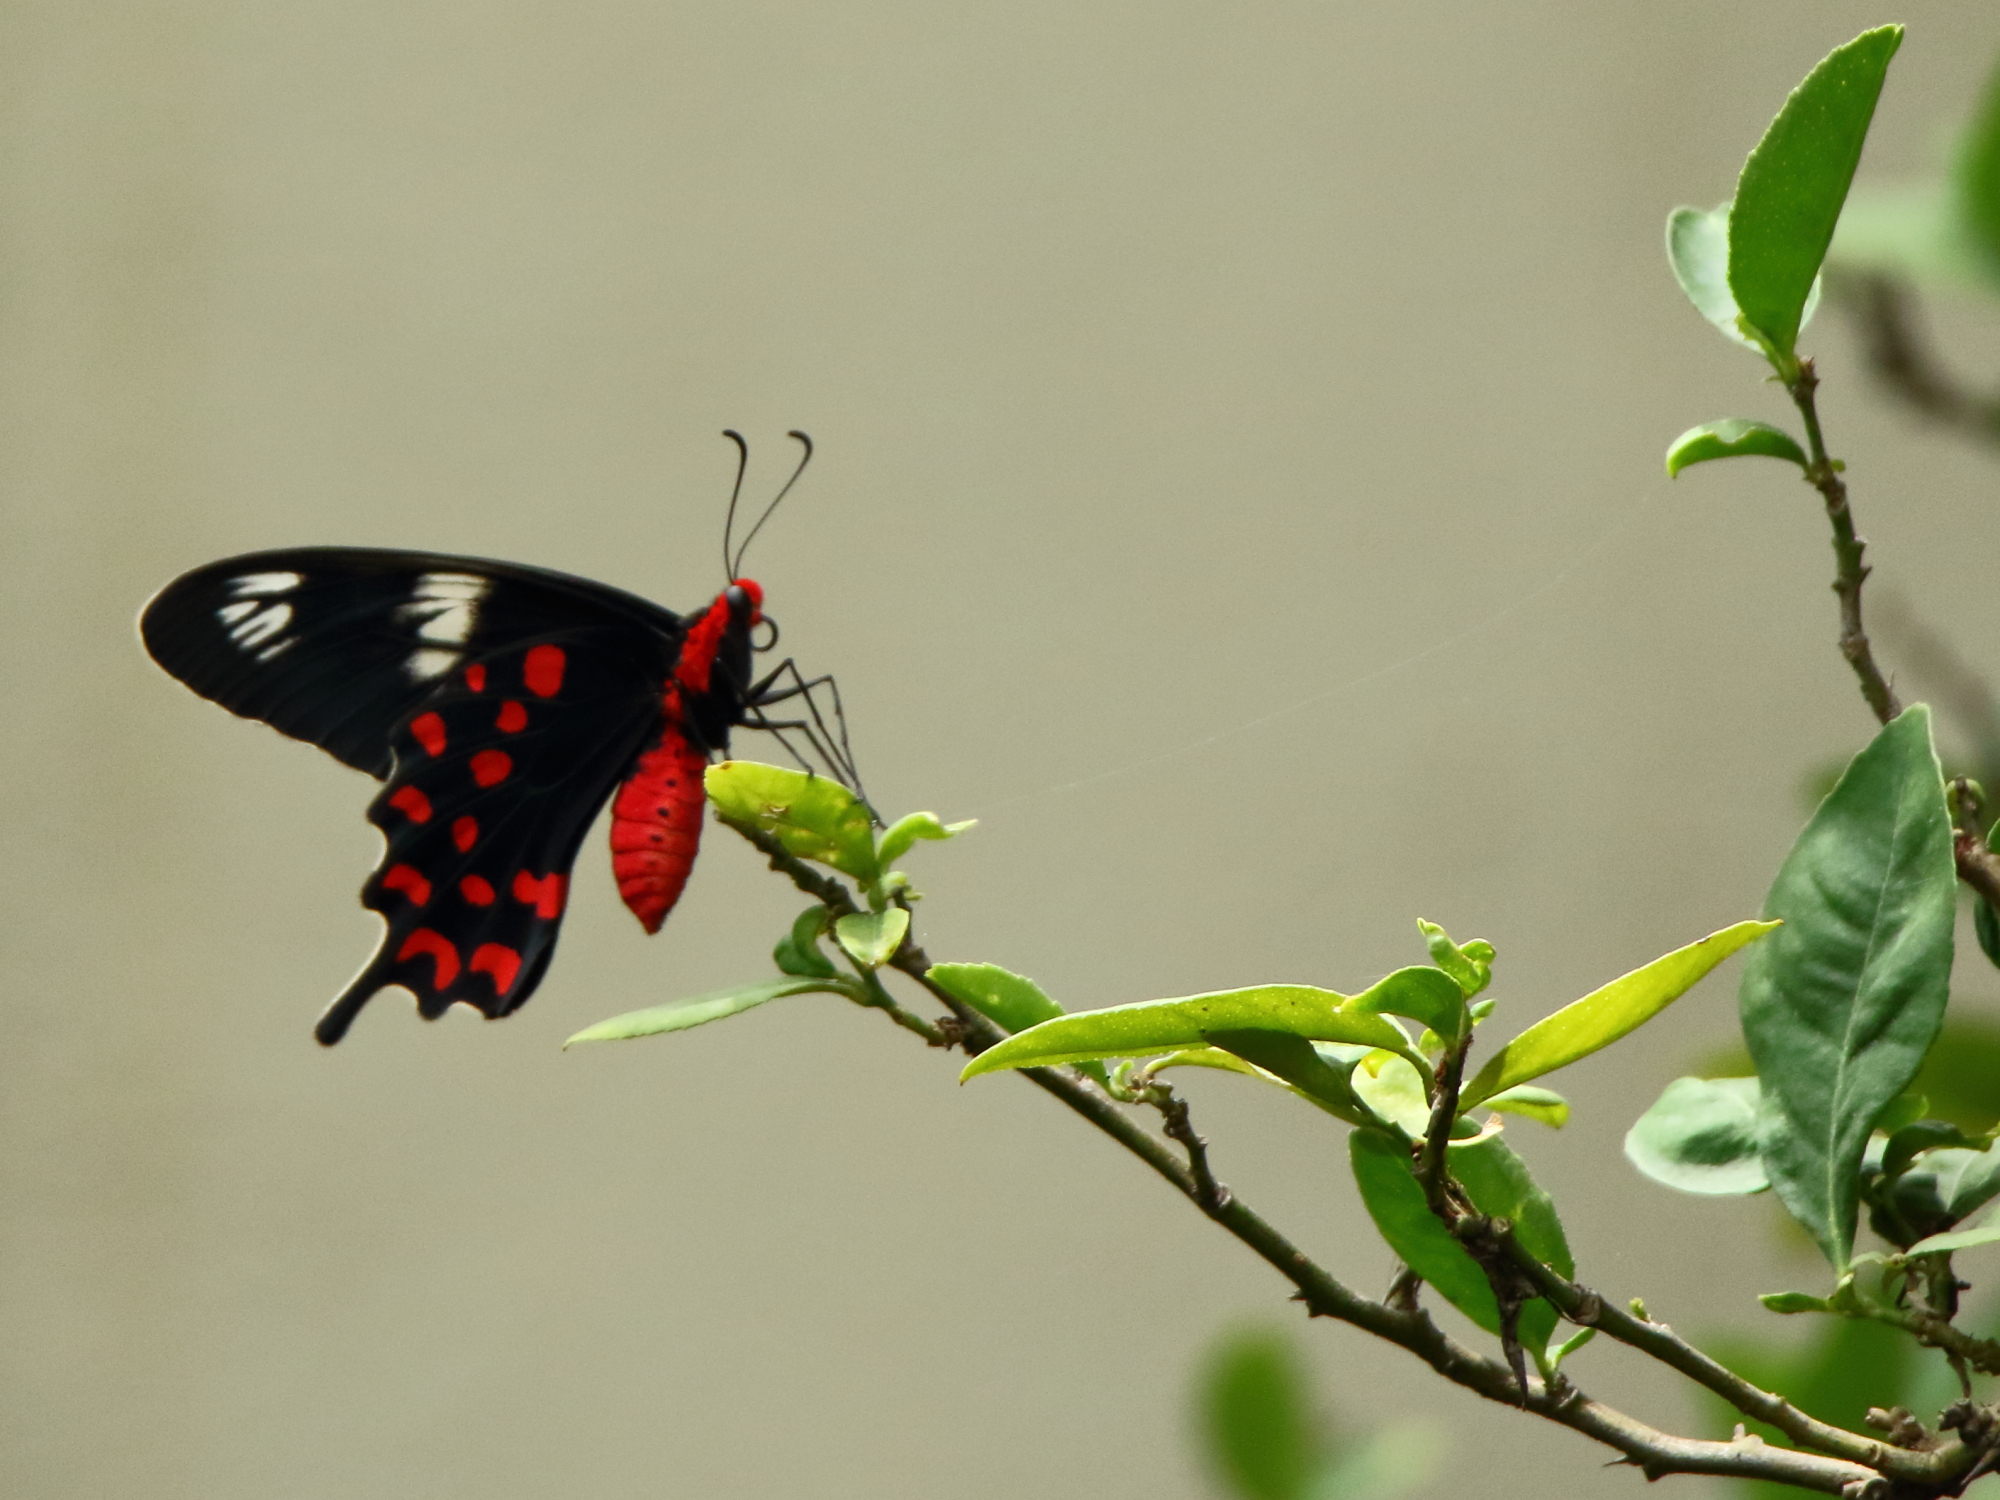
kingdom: Animalia
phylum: Arthropoda
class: Insecta
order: Lepidoptera
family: Papilionidae
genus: Pachliopta
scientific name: Pachliopta hector
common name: Crimson rose
